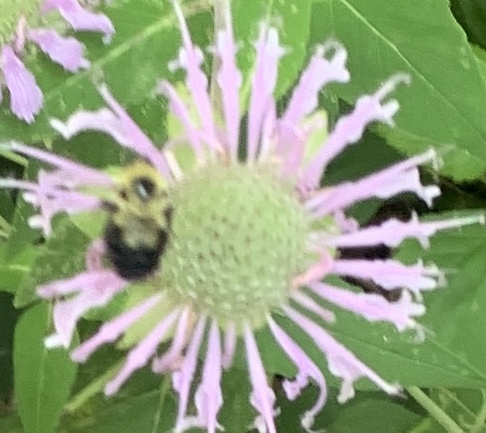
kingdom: Animalia
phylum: Arthropoda
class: Insecta
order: Hymenoptera
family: Apidae
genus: Bombus
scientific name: Bombus bimaculatus
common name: Two-spotted bumble bee
